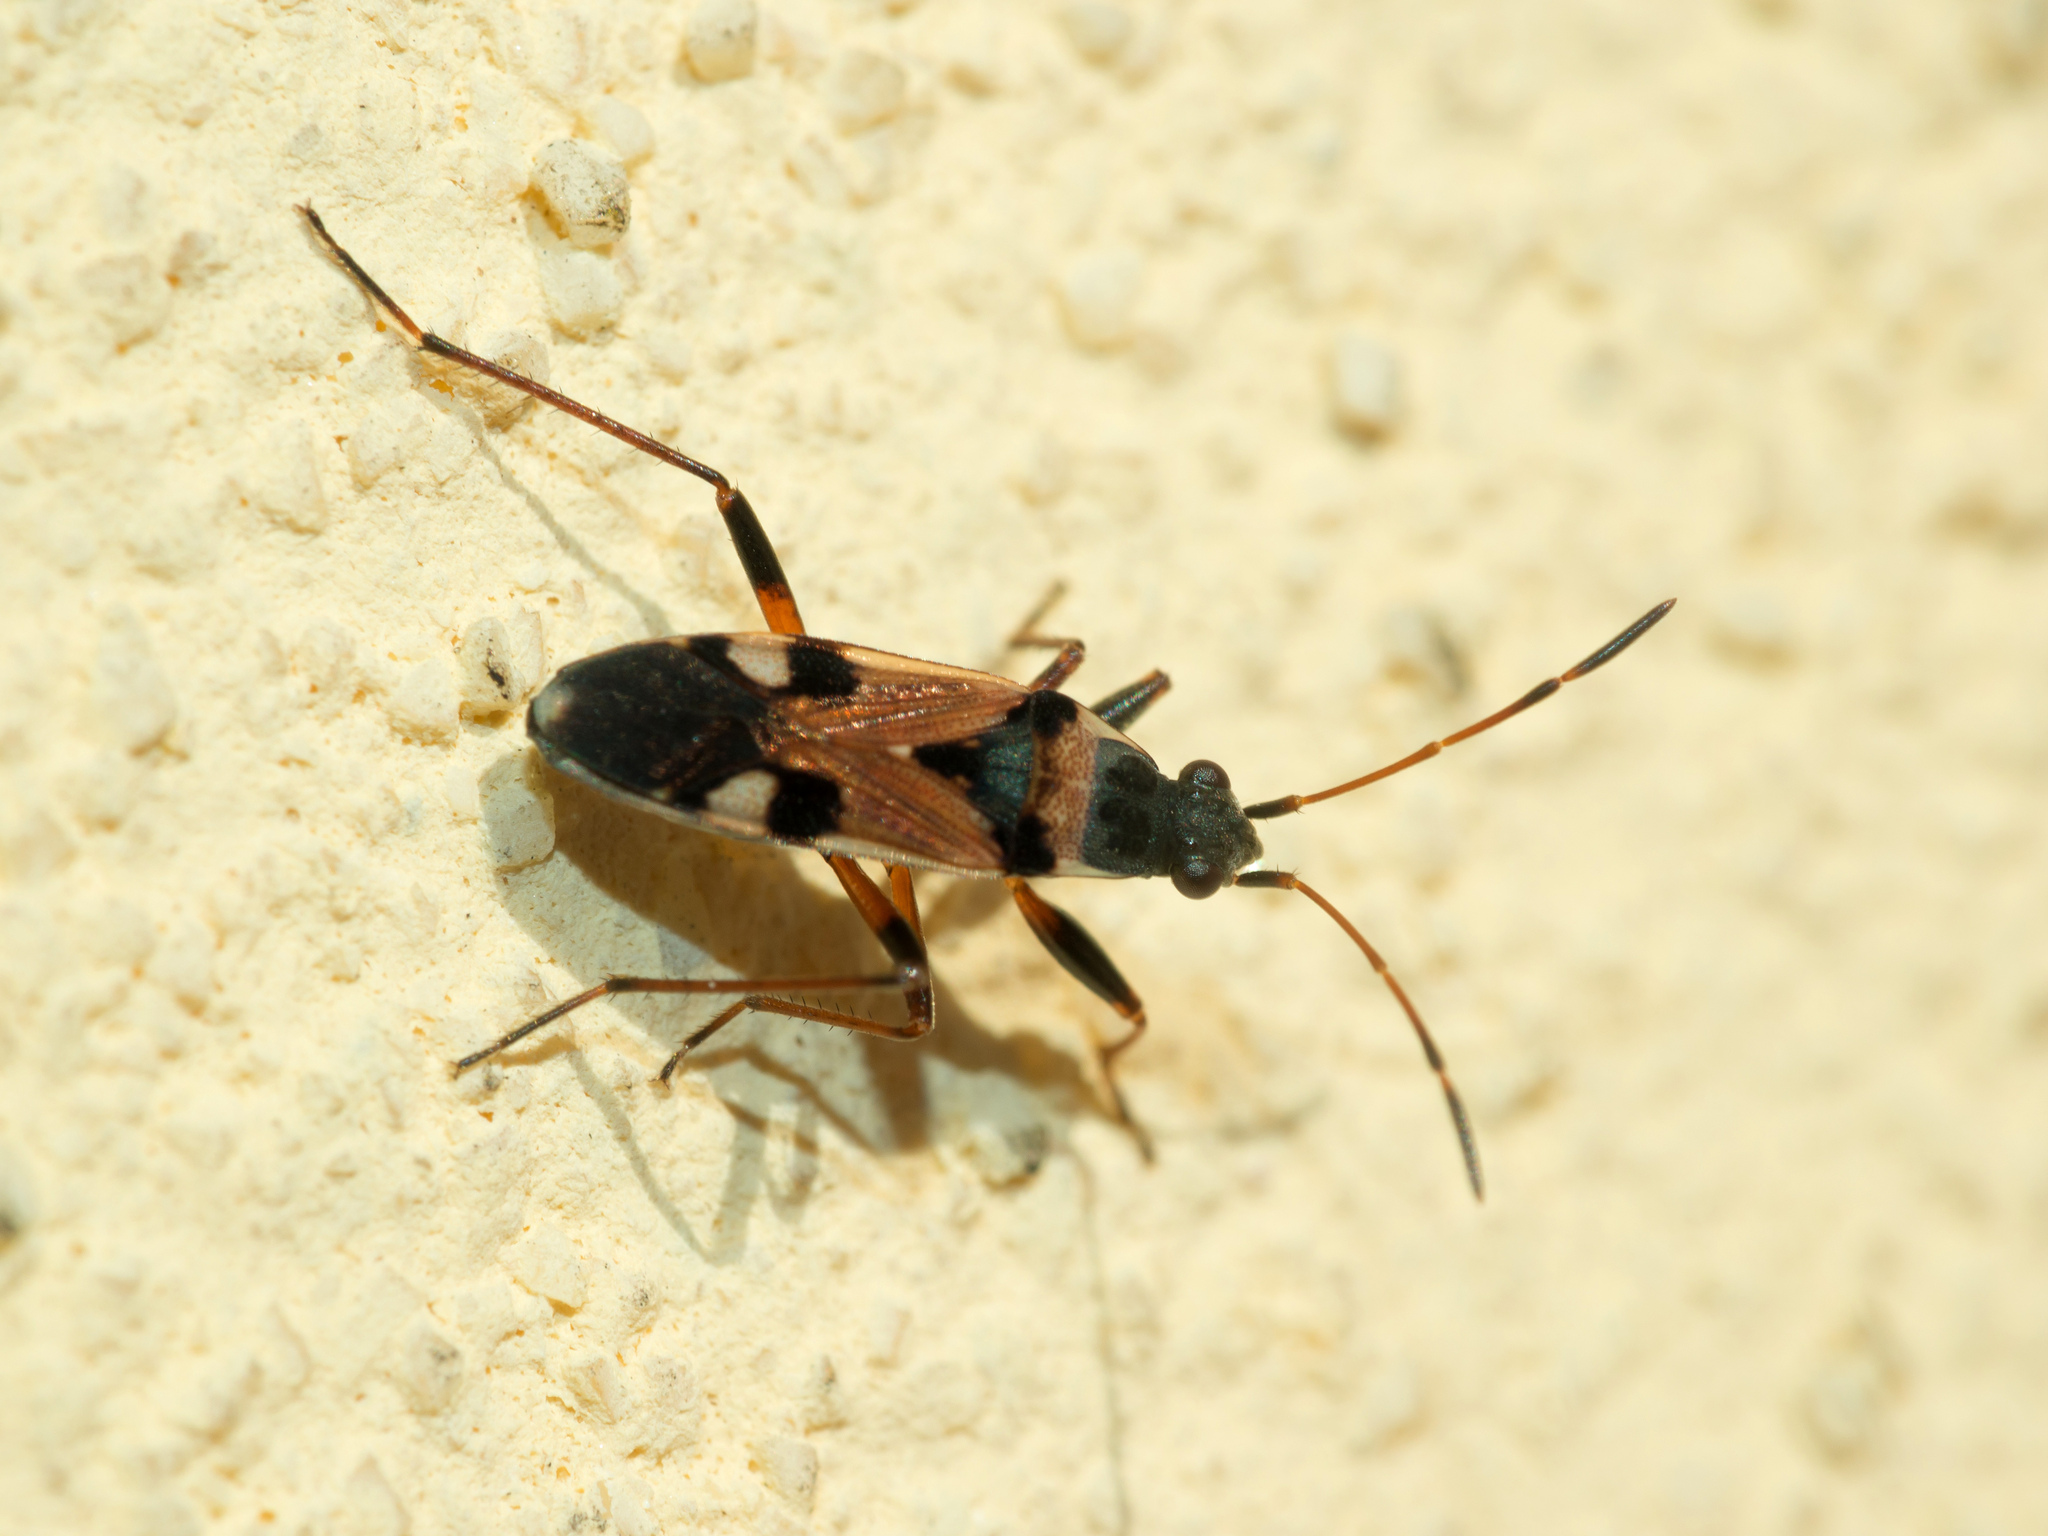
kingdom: Animalia
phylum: Arthropoda
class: Insecta
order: Hemiptera
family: Rhyparochromidae
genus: Beosus
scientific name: Beosus quadripunctatus
